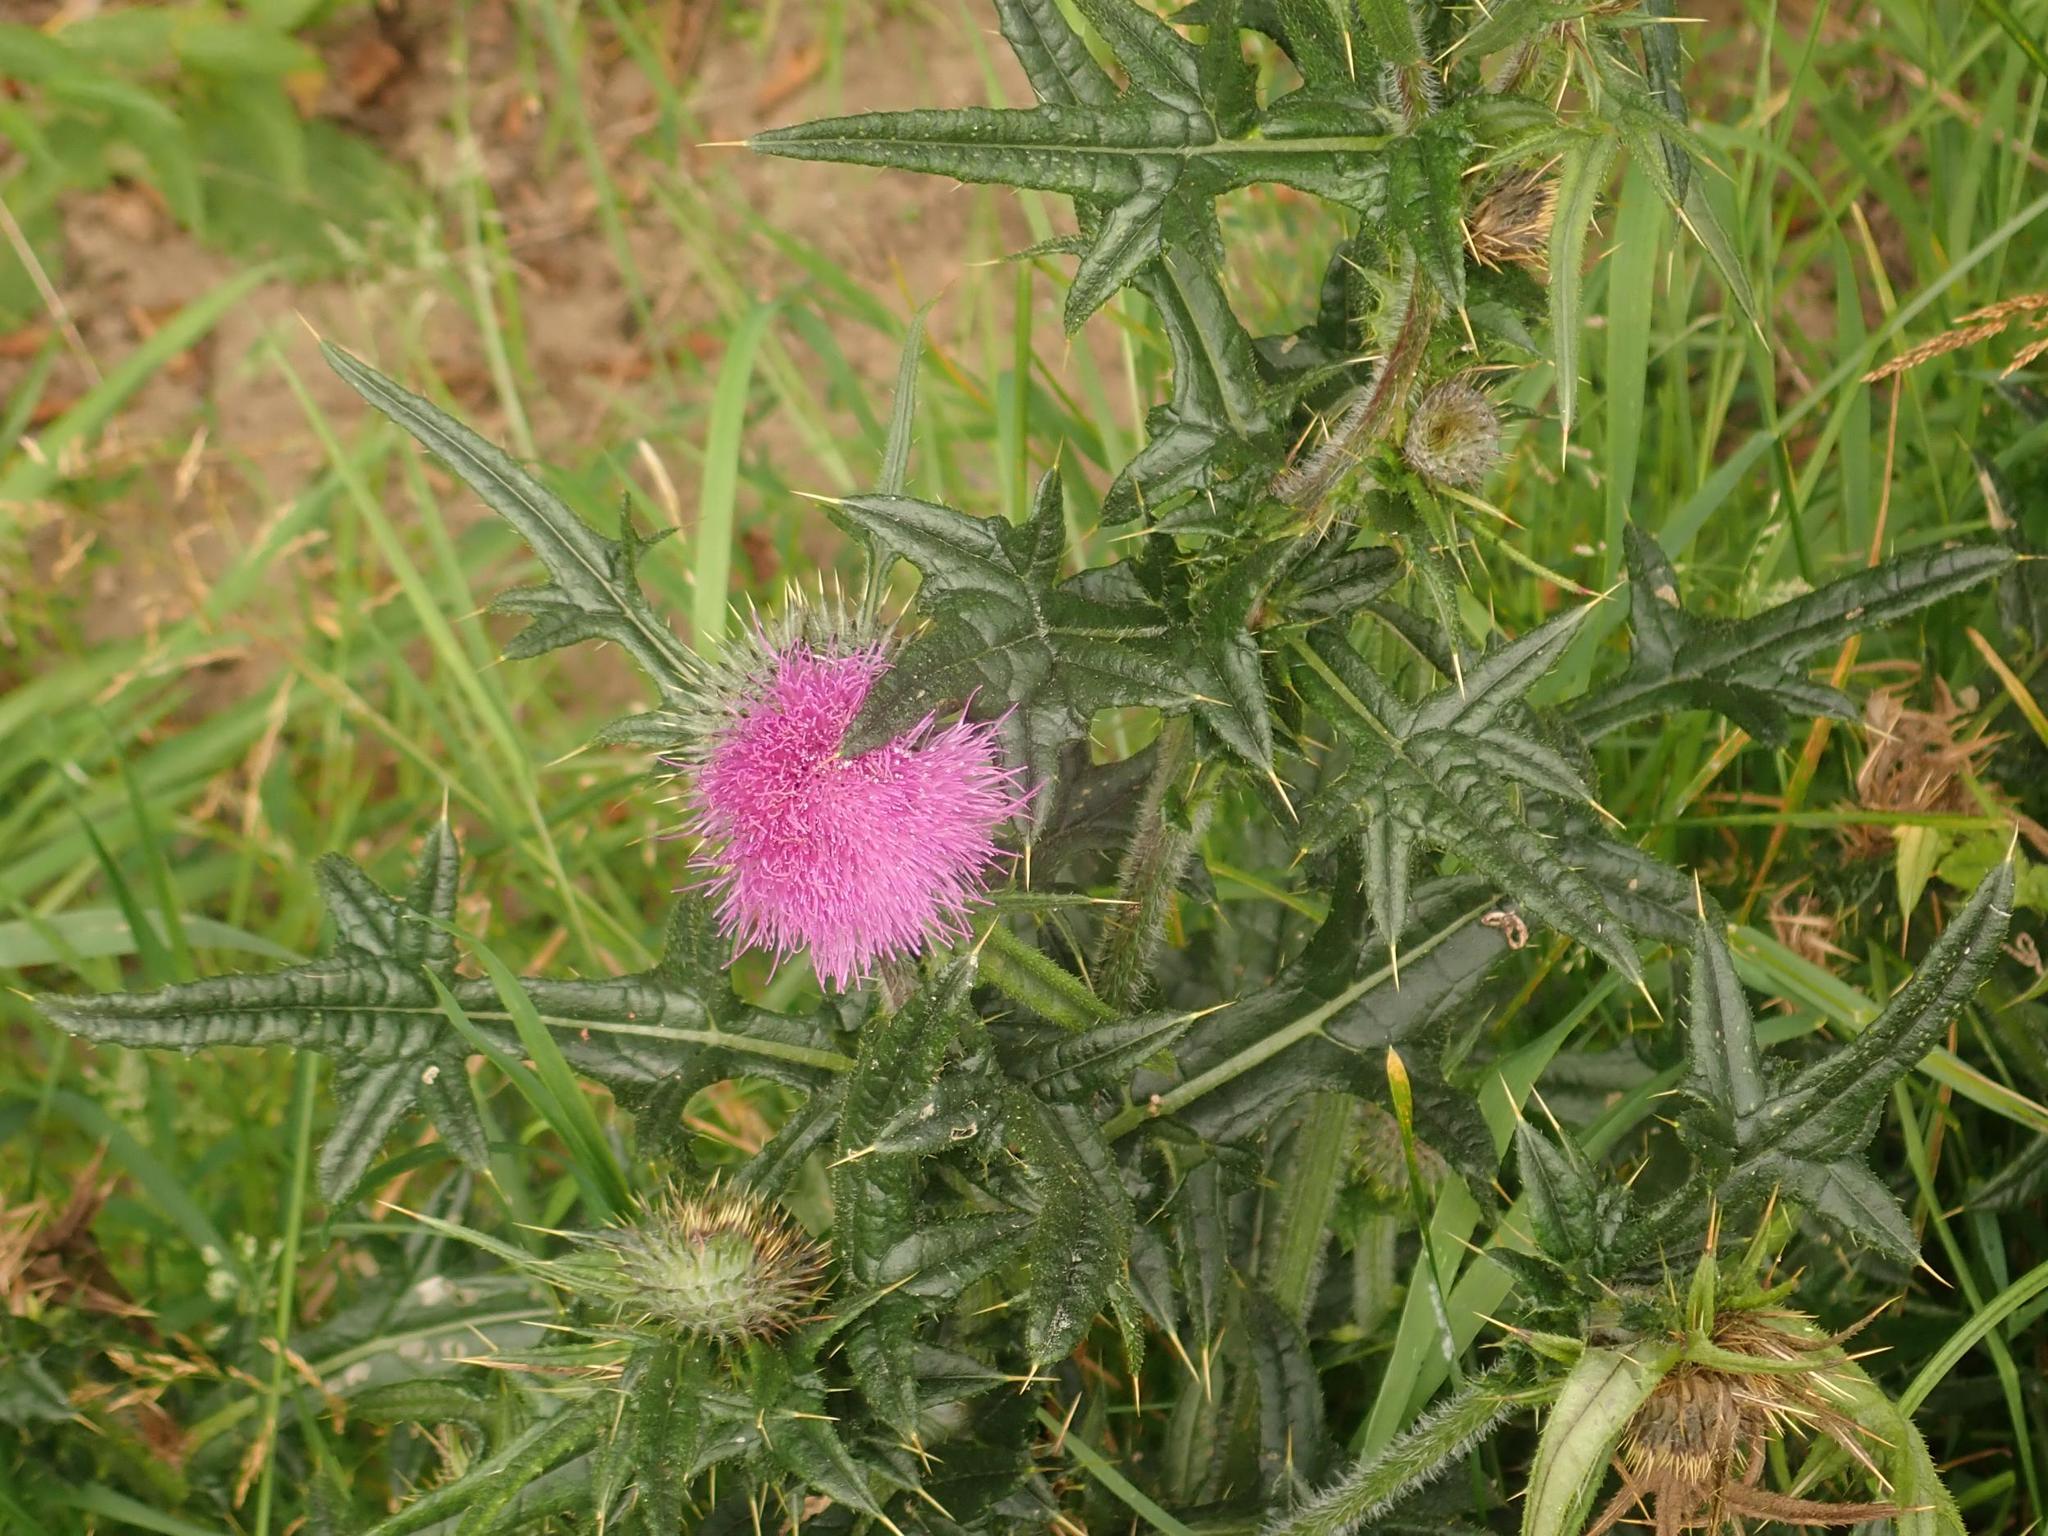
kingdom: Plantae
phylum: Tracheophyta
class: Magnoliopsida
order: Asterales
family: Asteraceae
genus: Cirsium
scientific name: Cirsium vulgare
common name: Bull thistle
